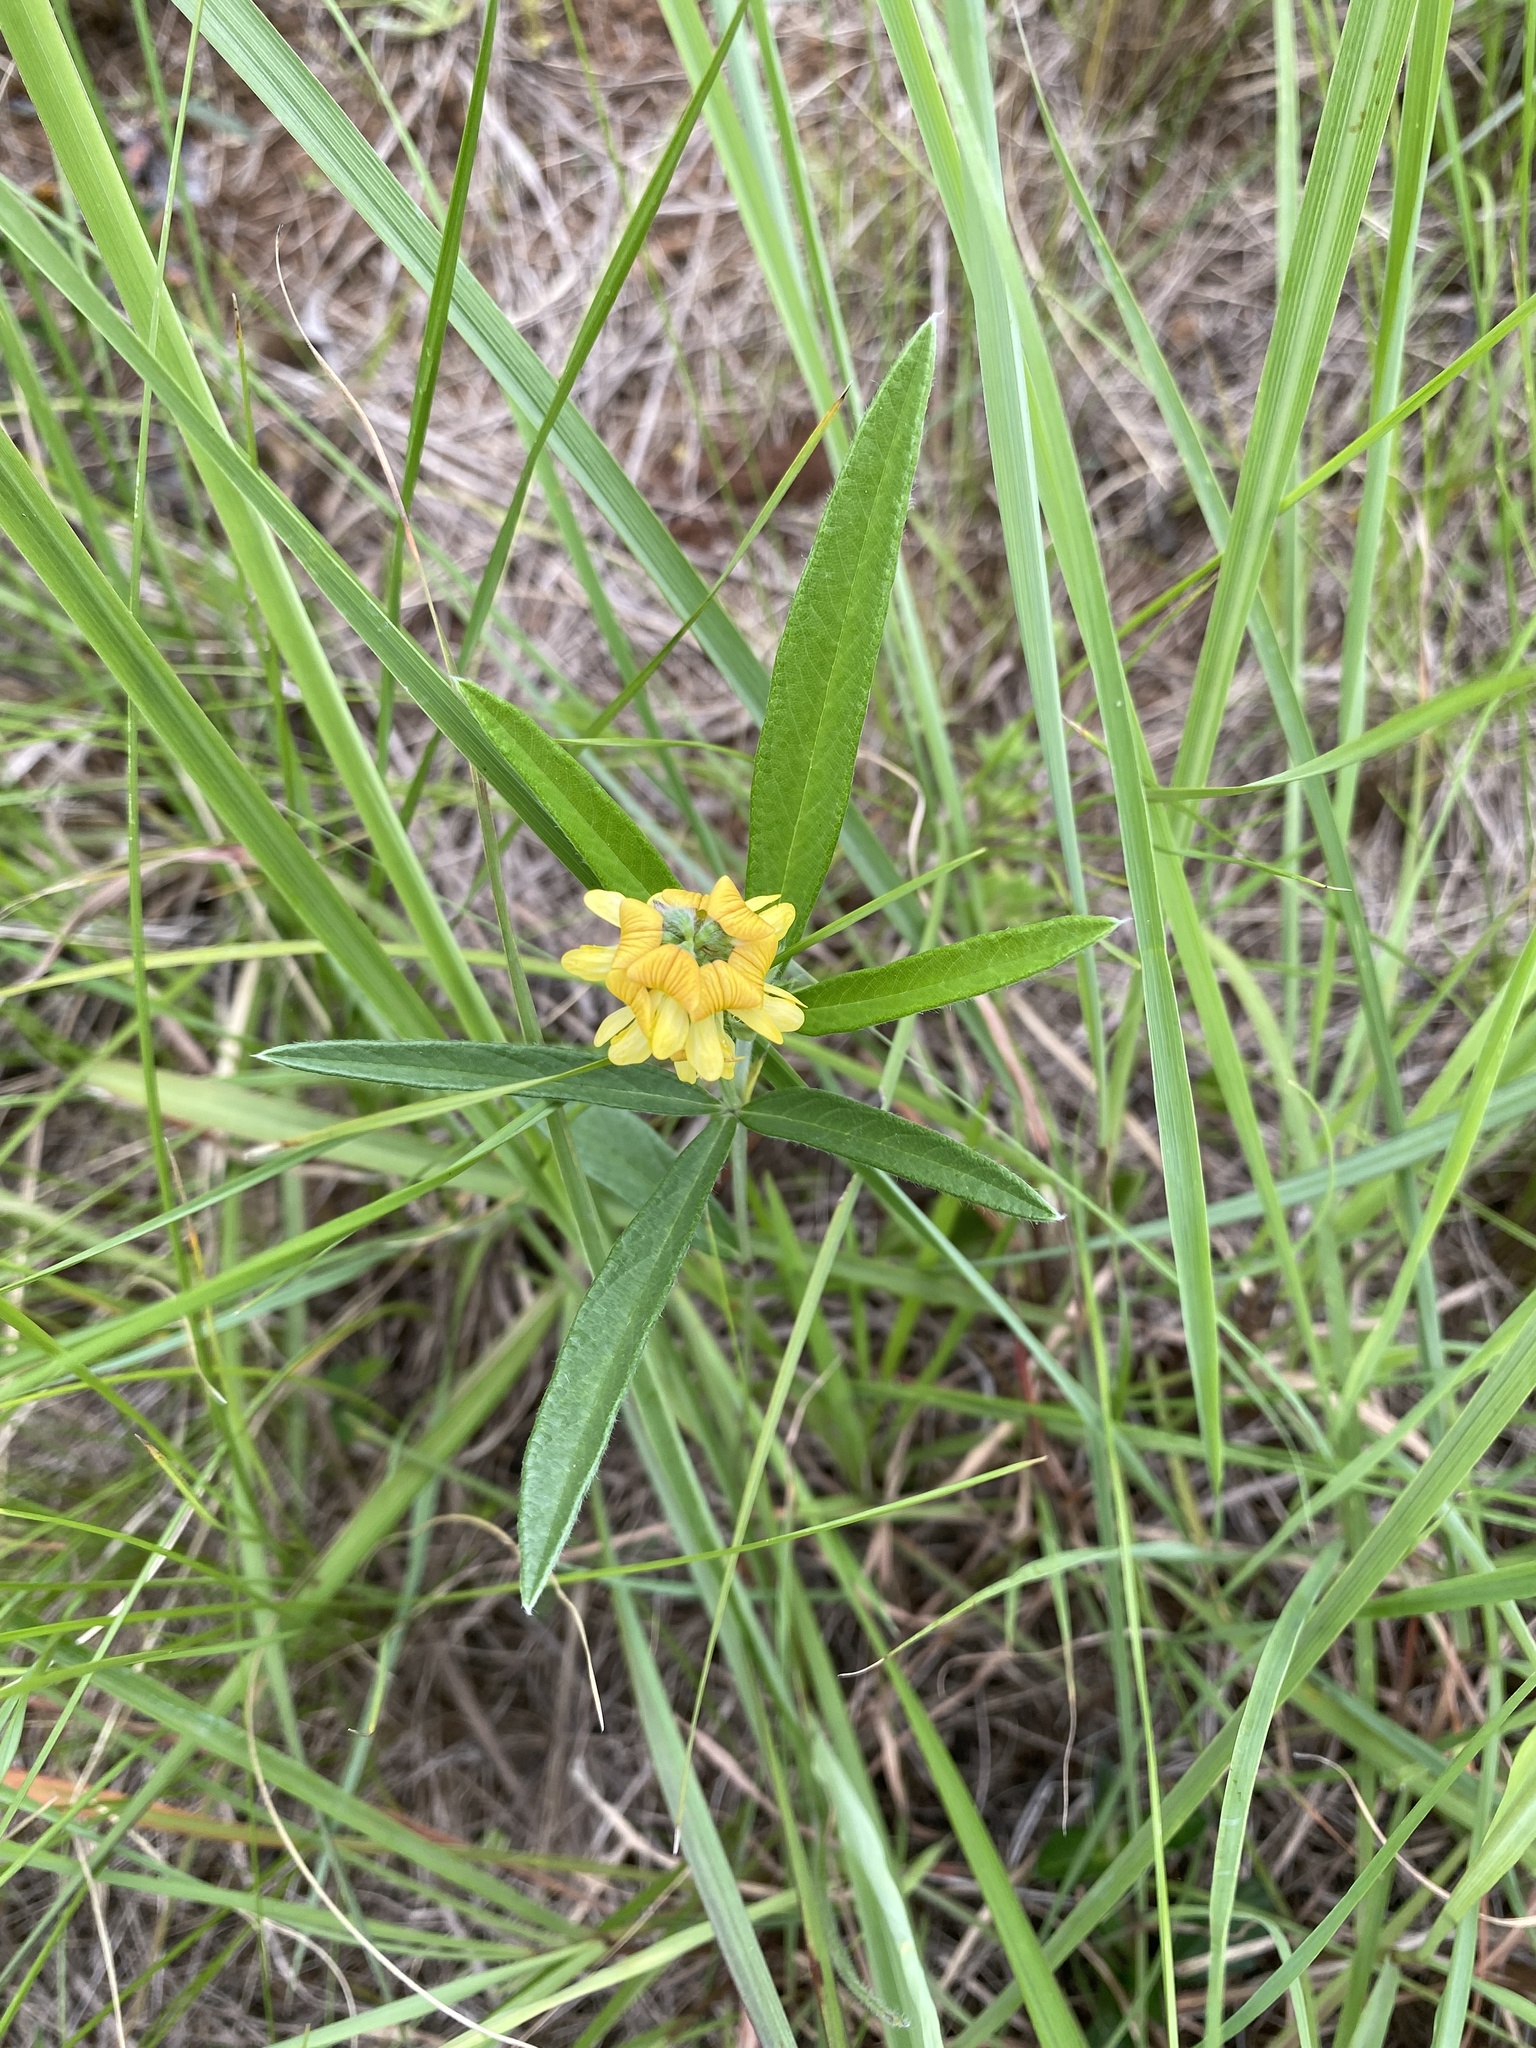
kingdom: Plantae
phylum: Tracheophyta
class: Magnoliopsida
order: Fabales
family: Fabaceae
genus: Eriosema
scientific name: Eriosema salignum
